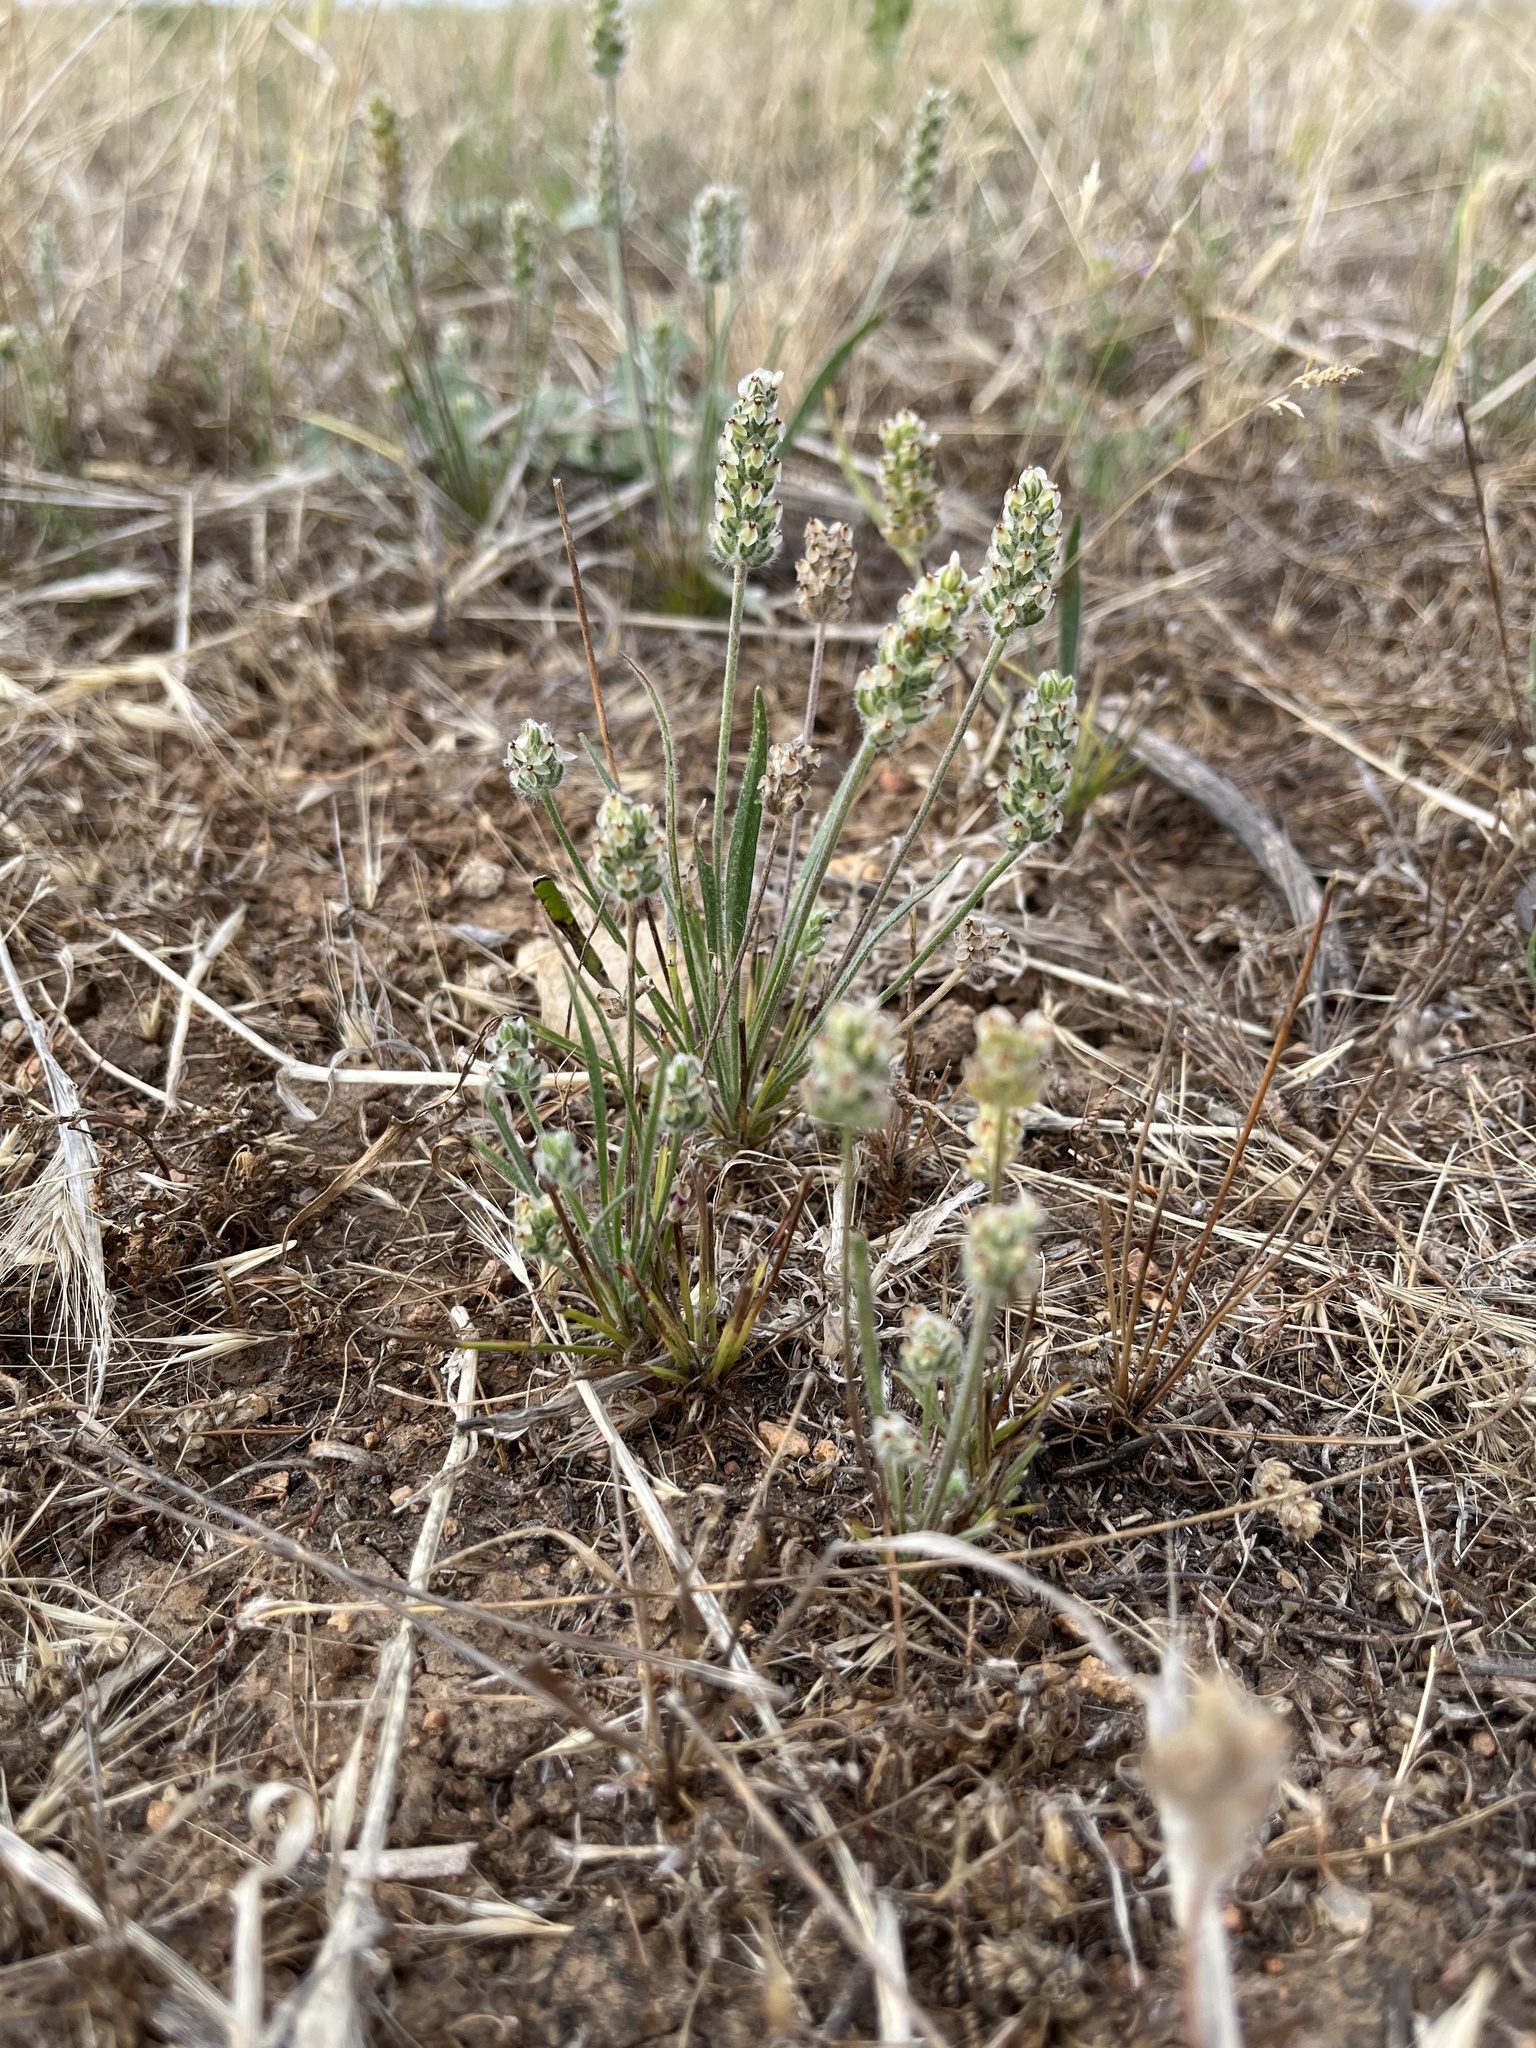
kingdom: Plantae
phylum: Tracheophyta
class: Magnoliopsida
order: Lamiales
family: Plantaginaceae
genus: Plantago
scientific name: Plantago erecta
